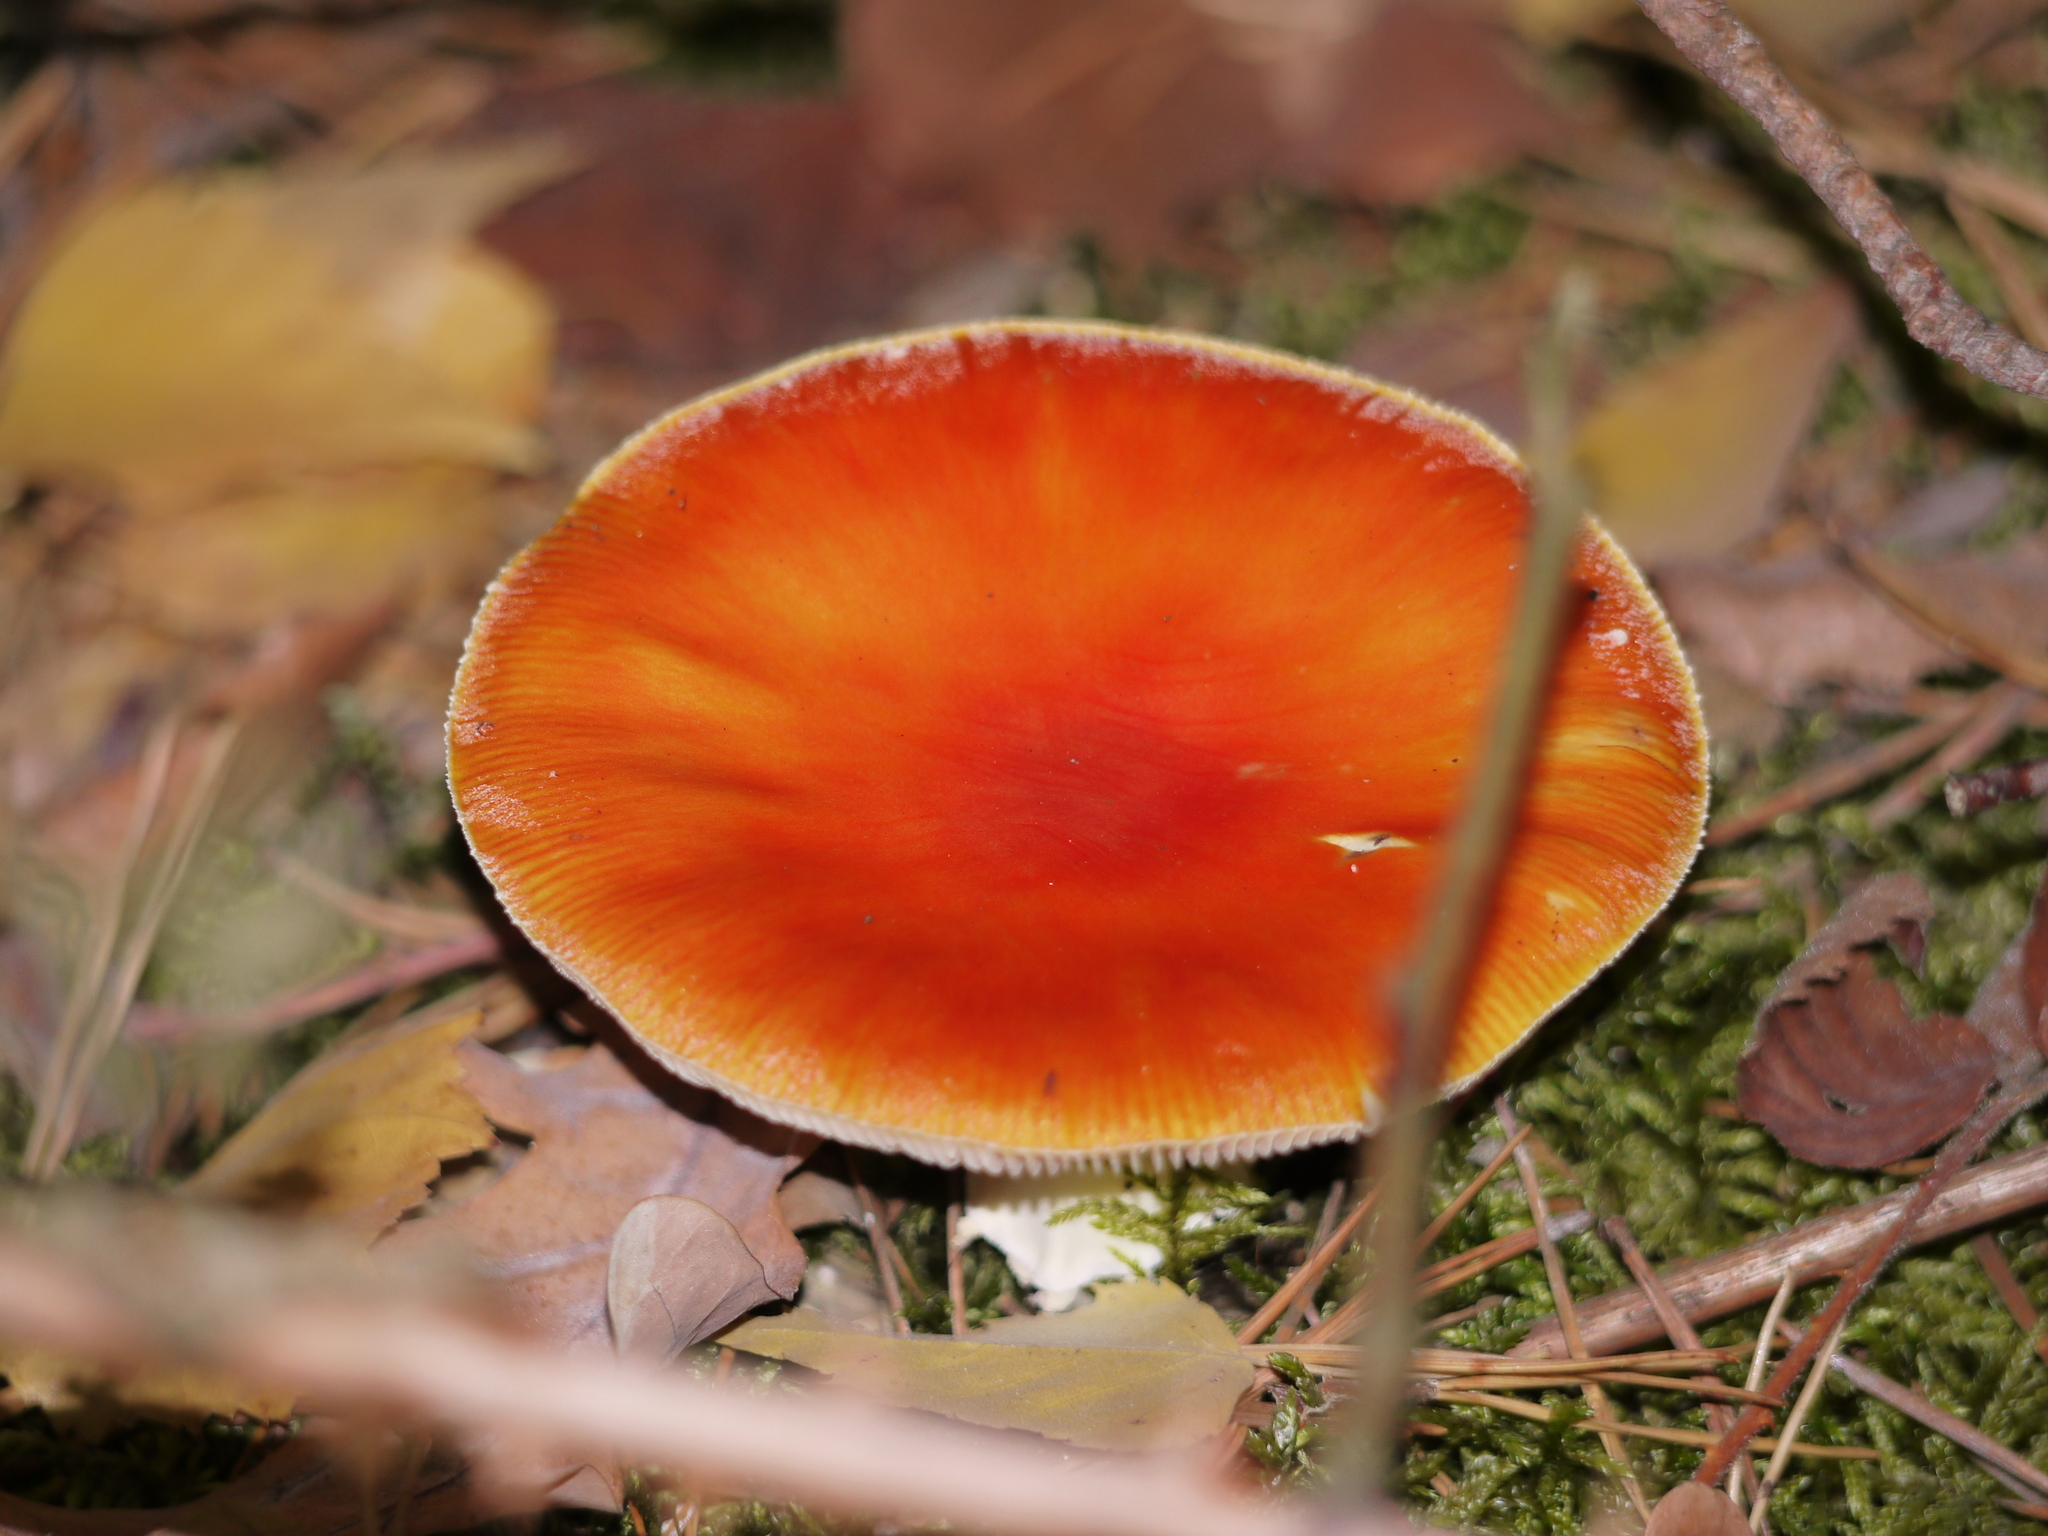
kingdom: Fungi
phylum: Basidiomycota
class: Agaricomycetes
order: Agaricales
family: Amanitaceae
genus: Amanita
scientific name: Amanita muscaria
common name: Fly agaric
